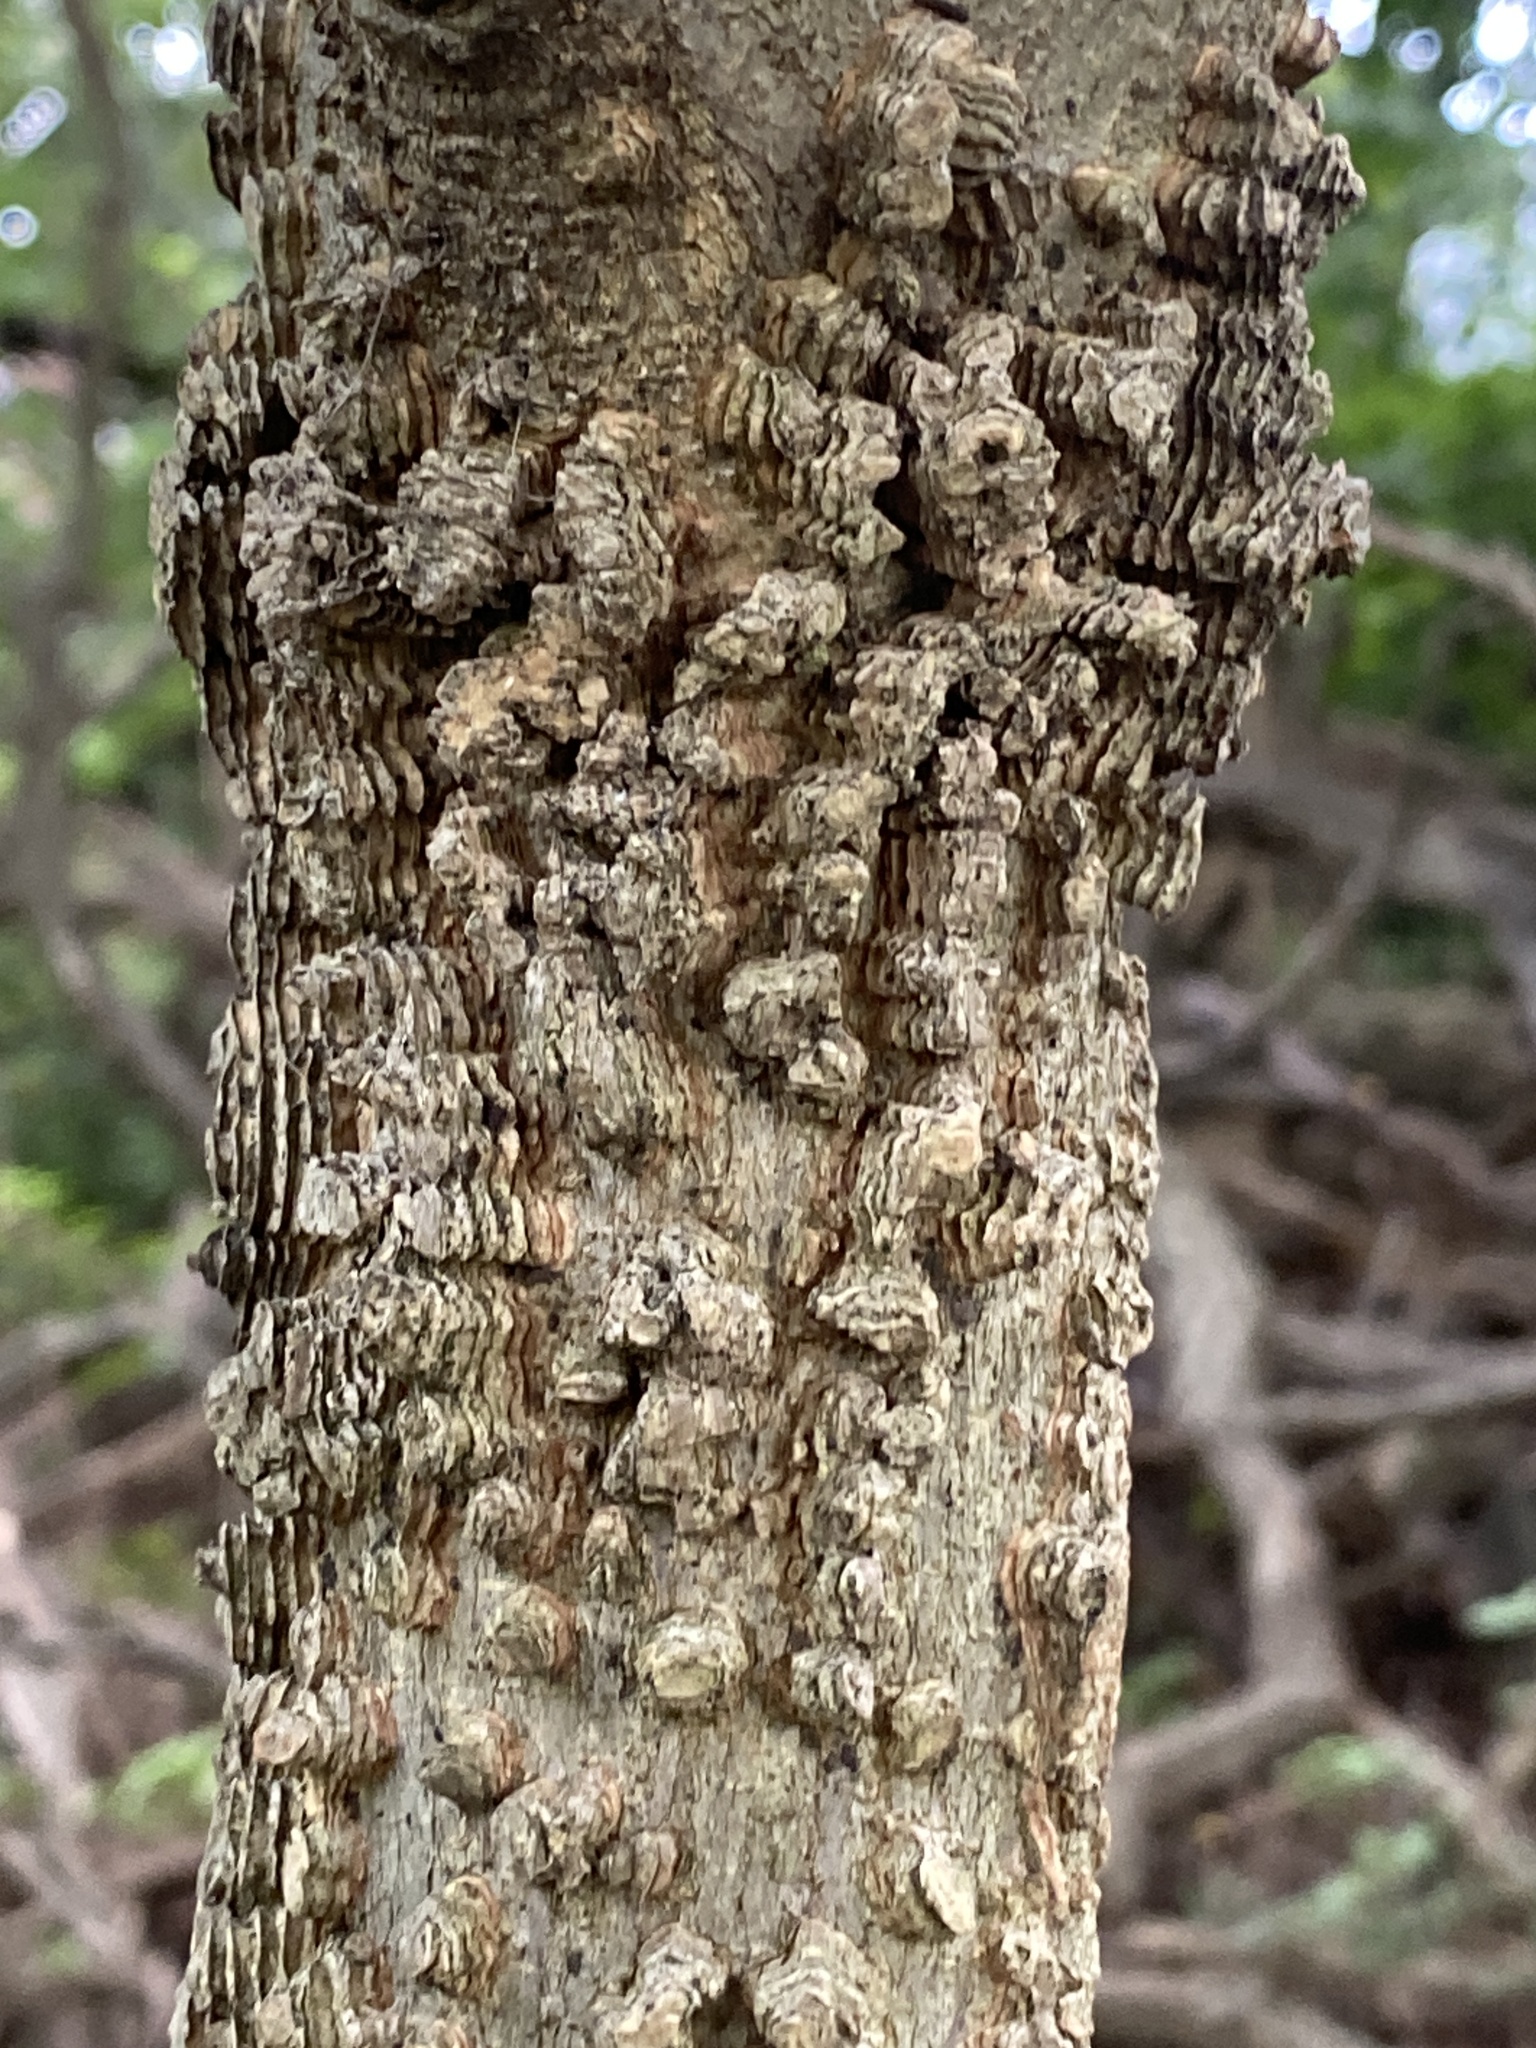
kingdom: Plantae
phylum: Tracheophyta
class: Magnoliopsida
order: Rosales
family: Cannabaceae
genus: Celtis
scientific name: Celtis occidentalis
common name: Common hackberry
